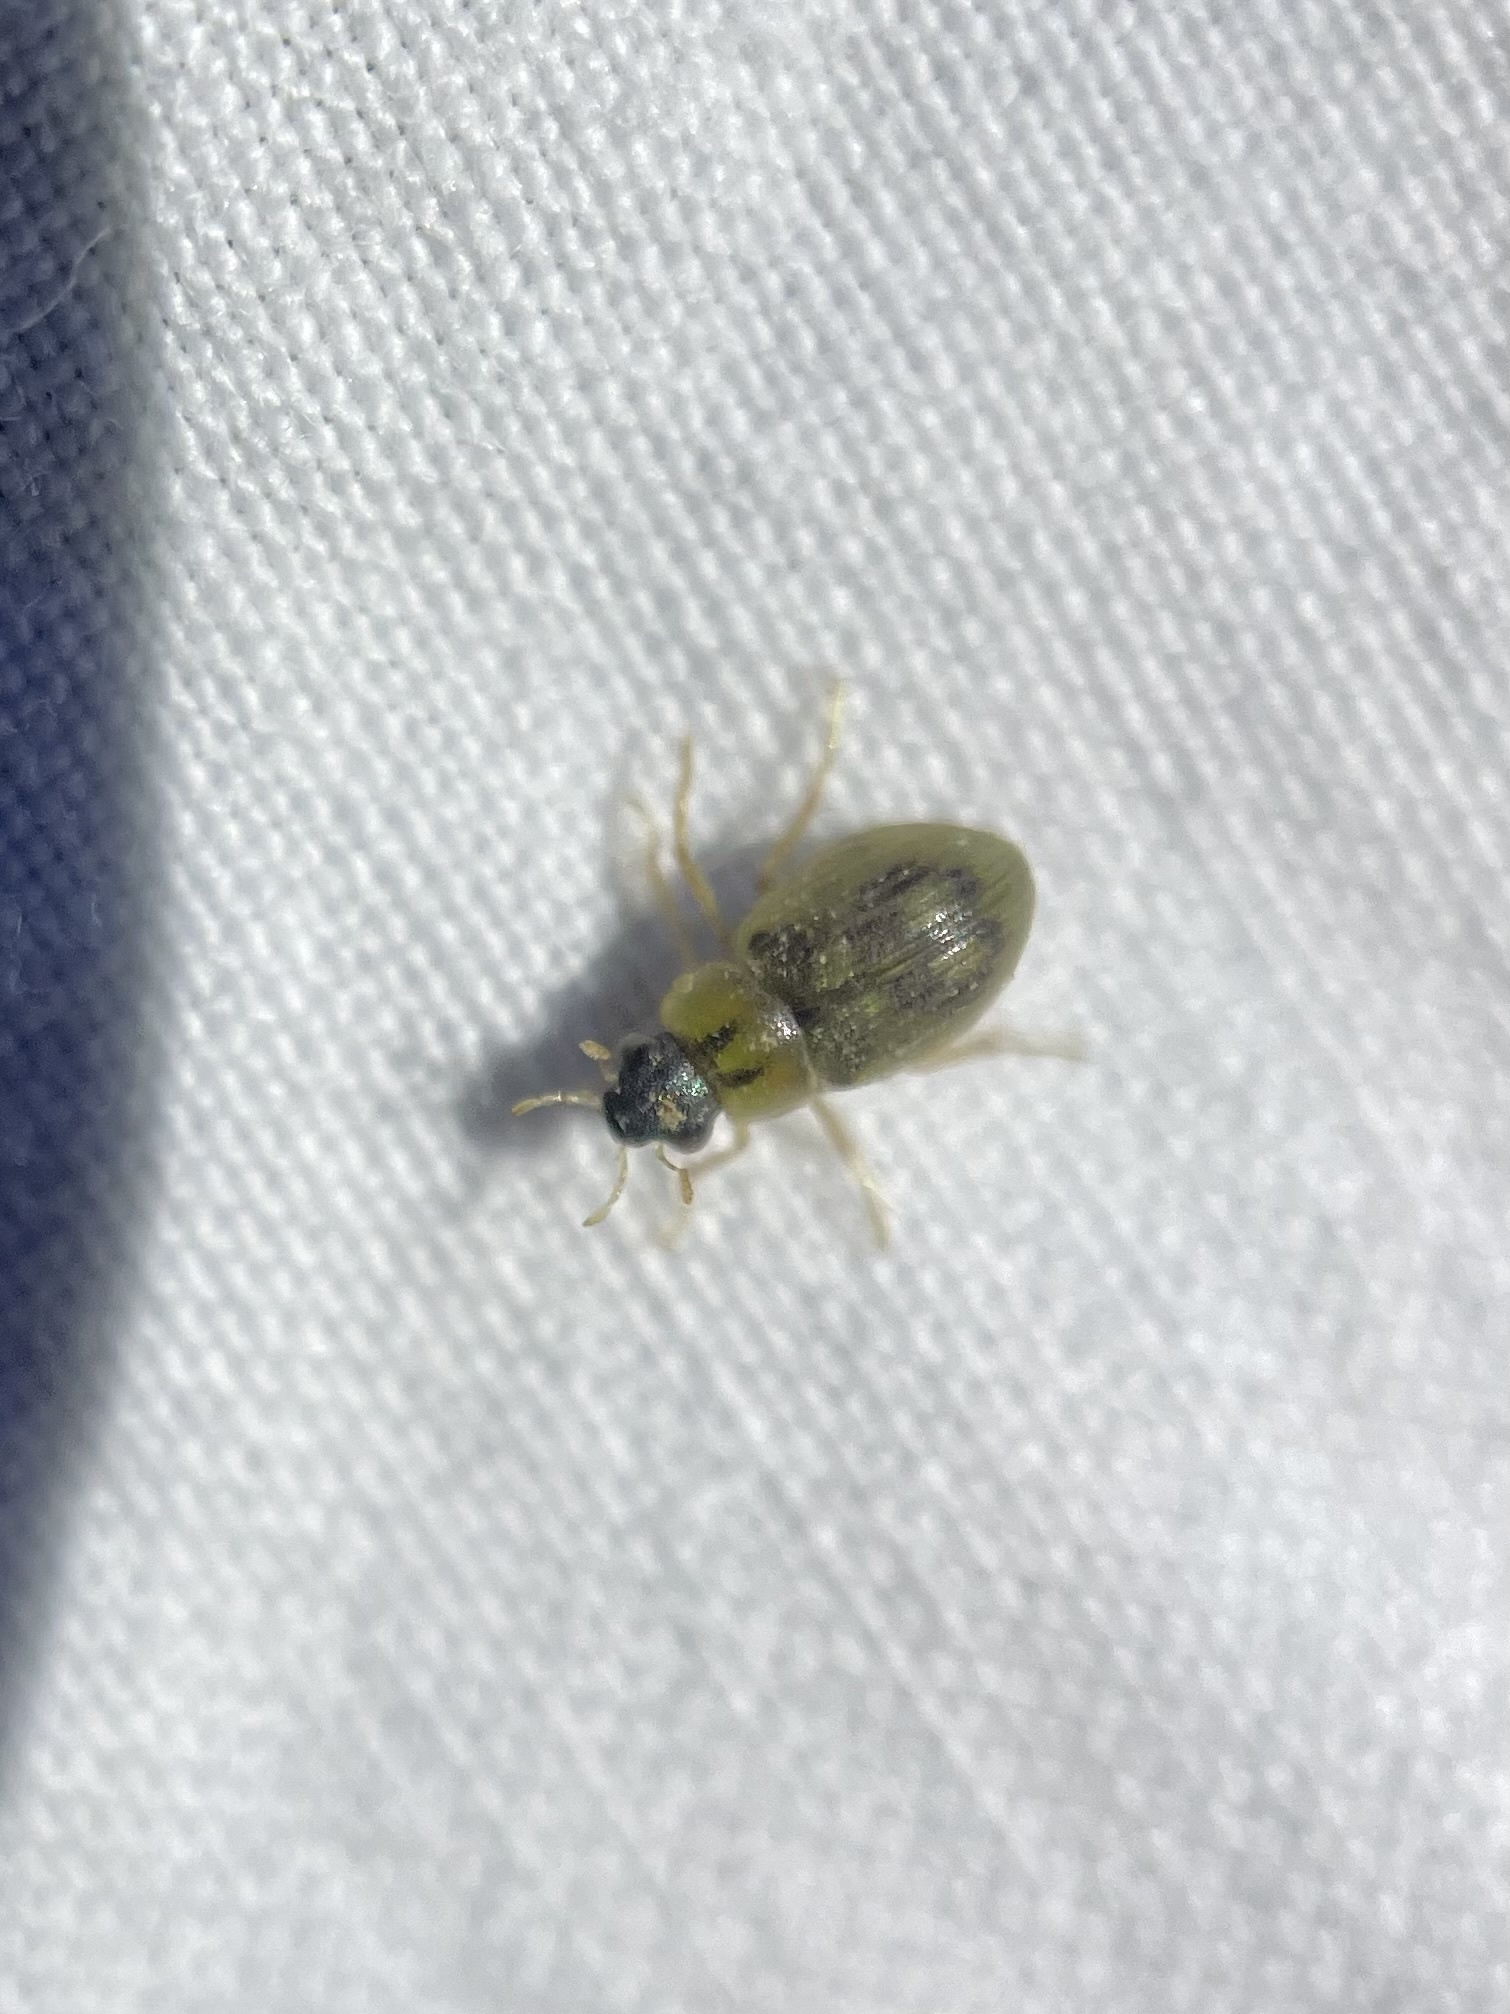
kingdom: Animalia
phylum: Arthropoda
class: Insecta
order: Coleoptera
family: Hydrophilidae
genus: Berosus
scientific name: Berosus
